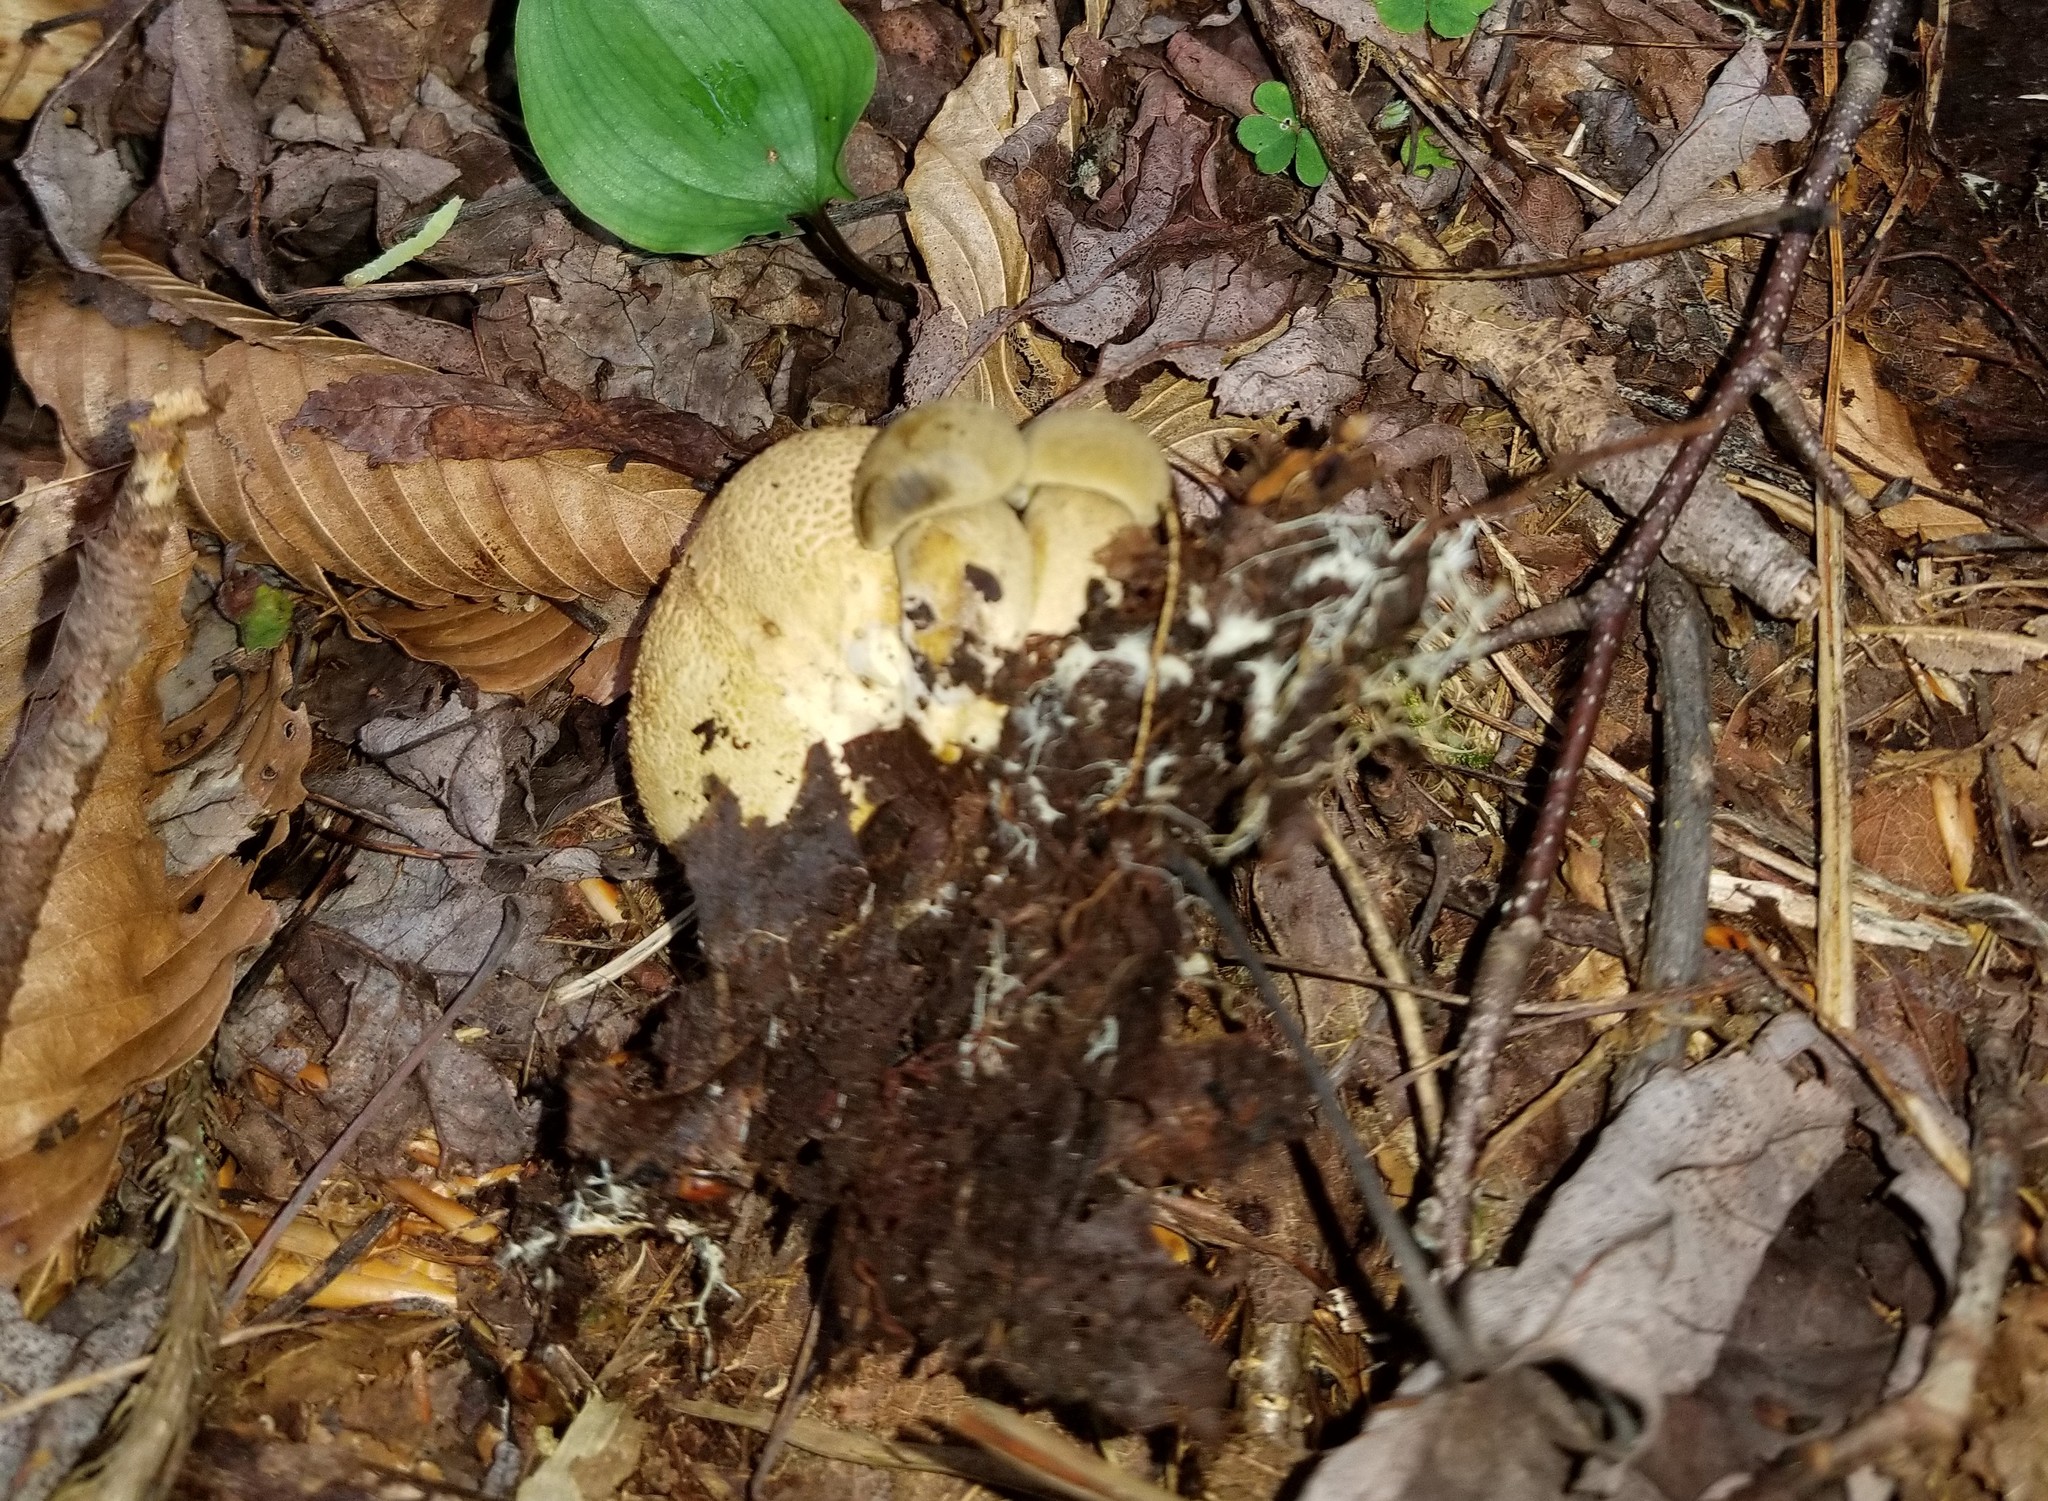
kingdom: Fungi
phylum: Basidiomycota
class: Agaricomycetes
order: Boletales
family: Boletaceae
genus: Pseudoboletus
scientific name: Pseudoboletus parasiticus
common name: Parasitic bolete
